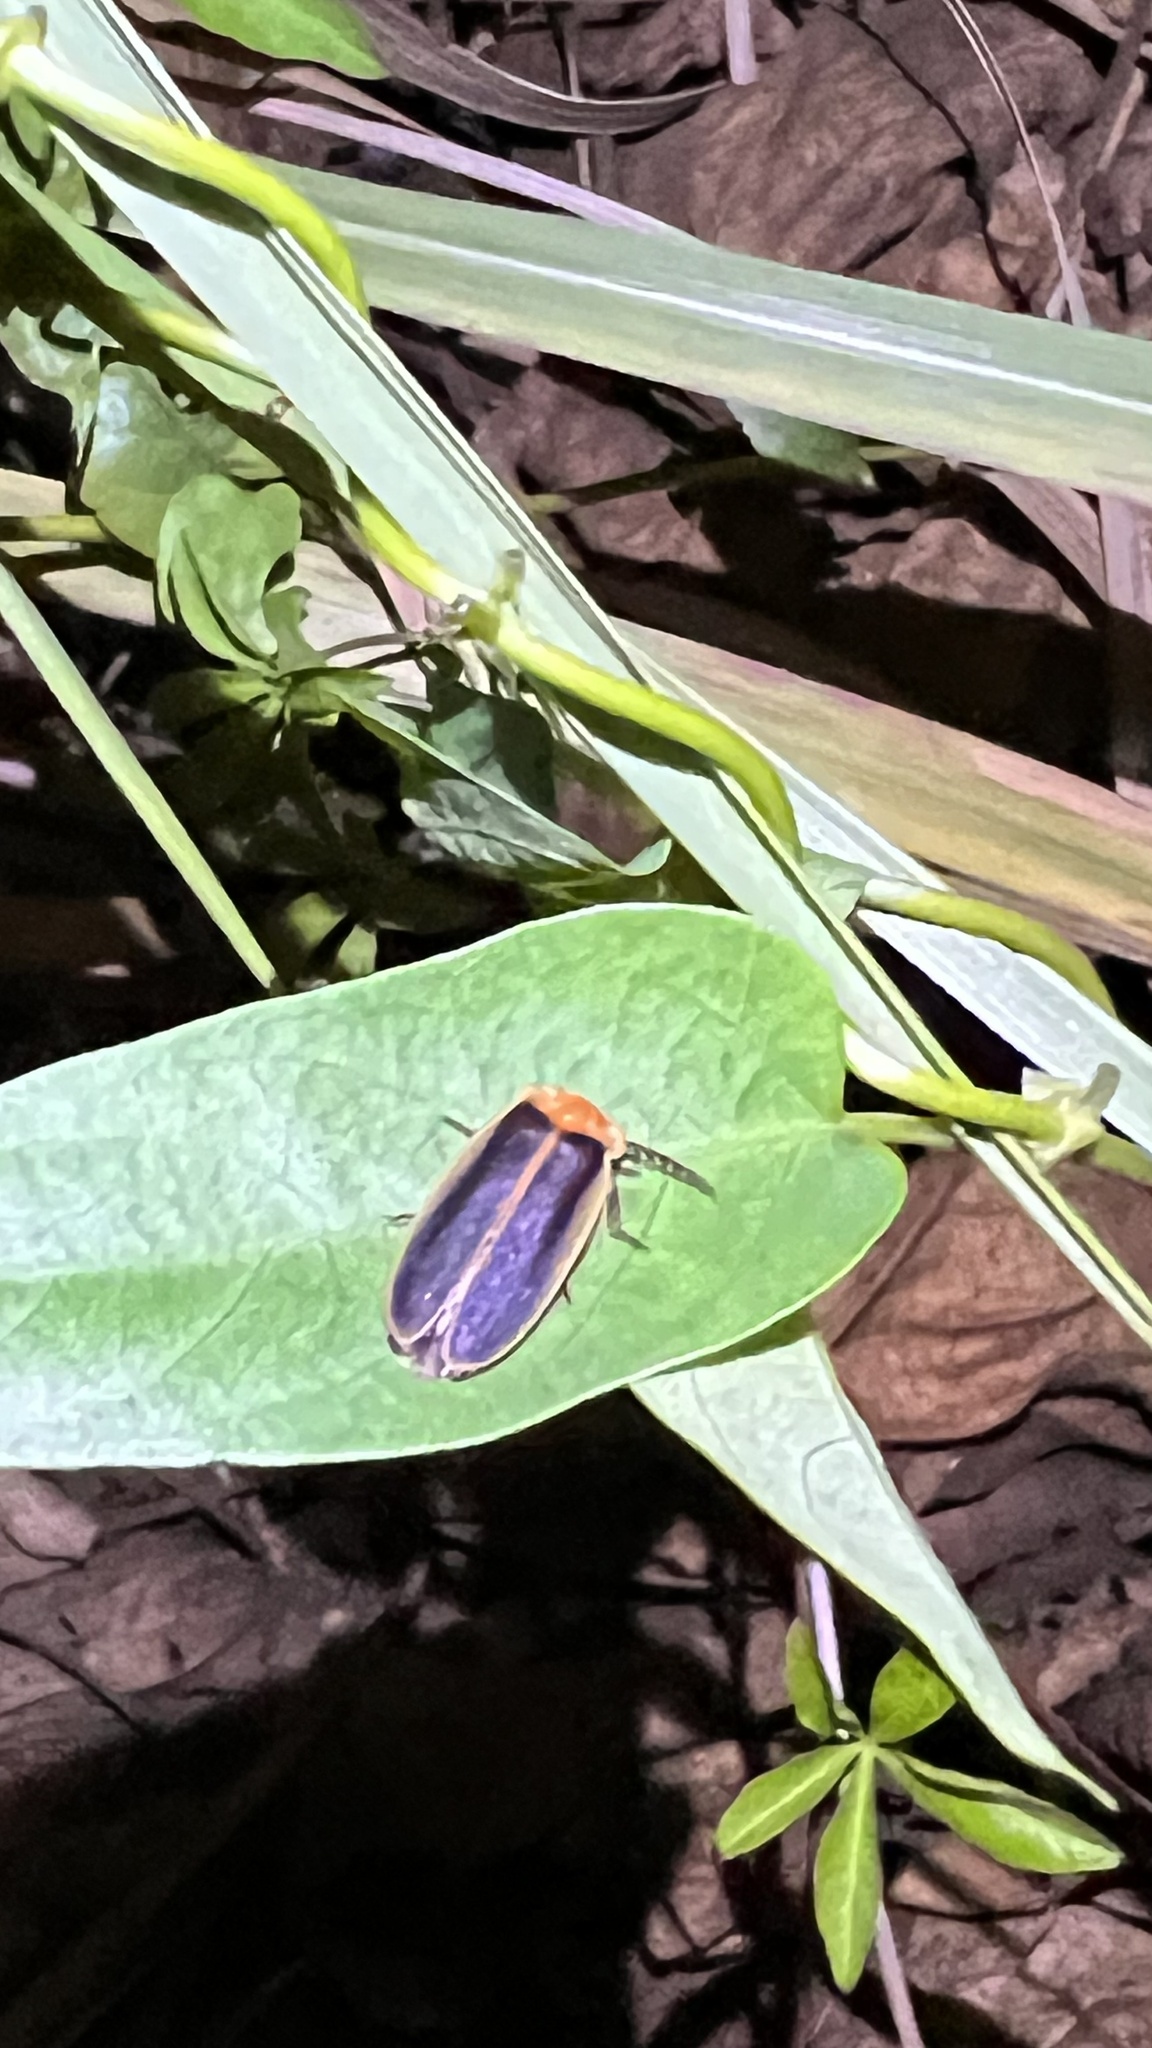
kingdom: Animalia
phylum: Arthropoda
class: Insecta
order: Coleoptera
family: Lampyridae
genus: Pyrocoelia
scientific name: Pyrocoelia analis
